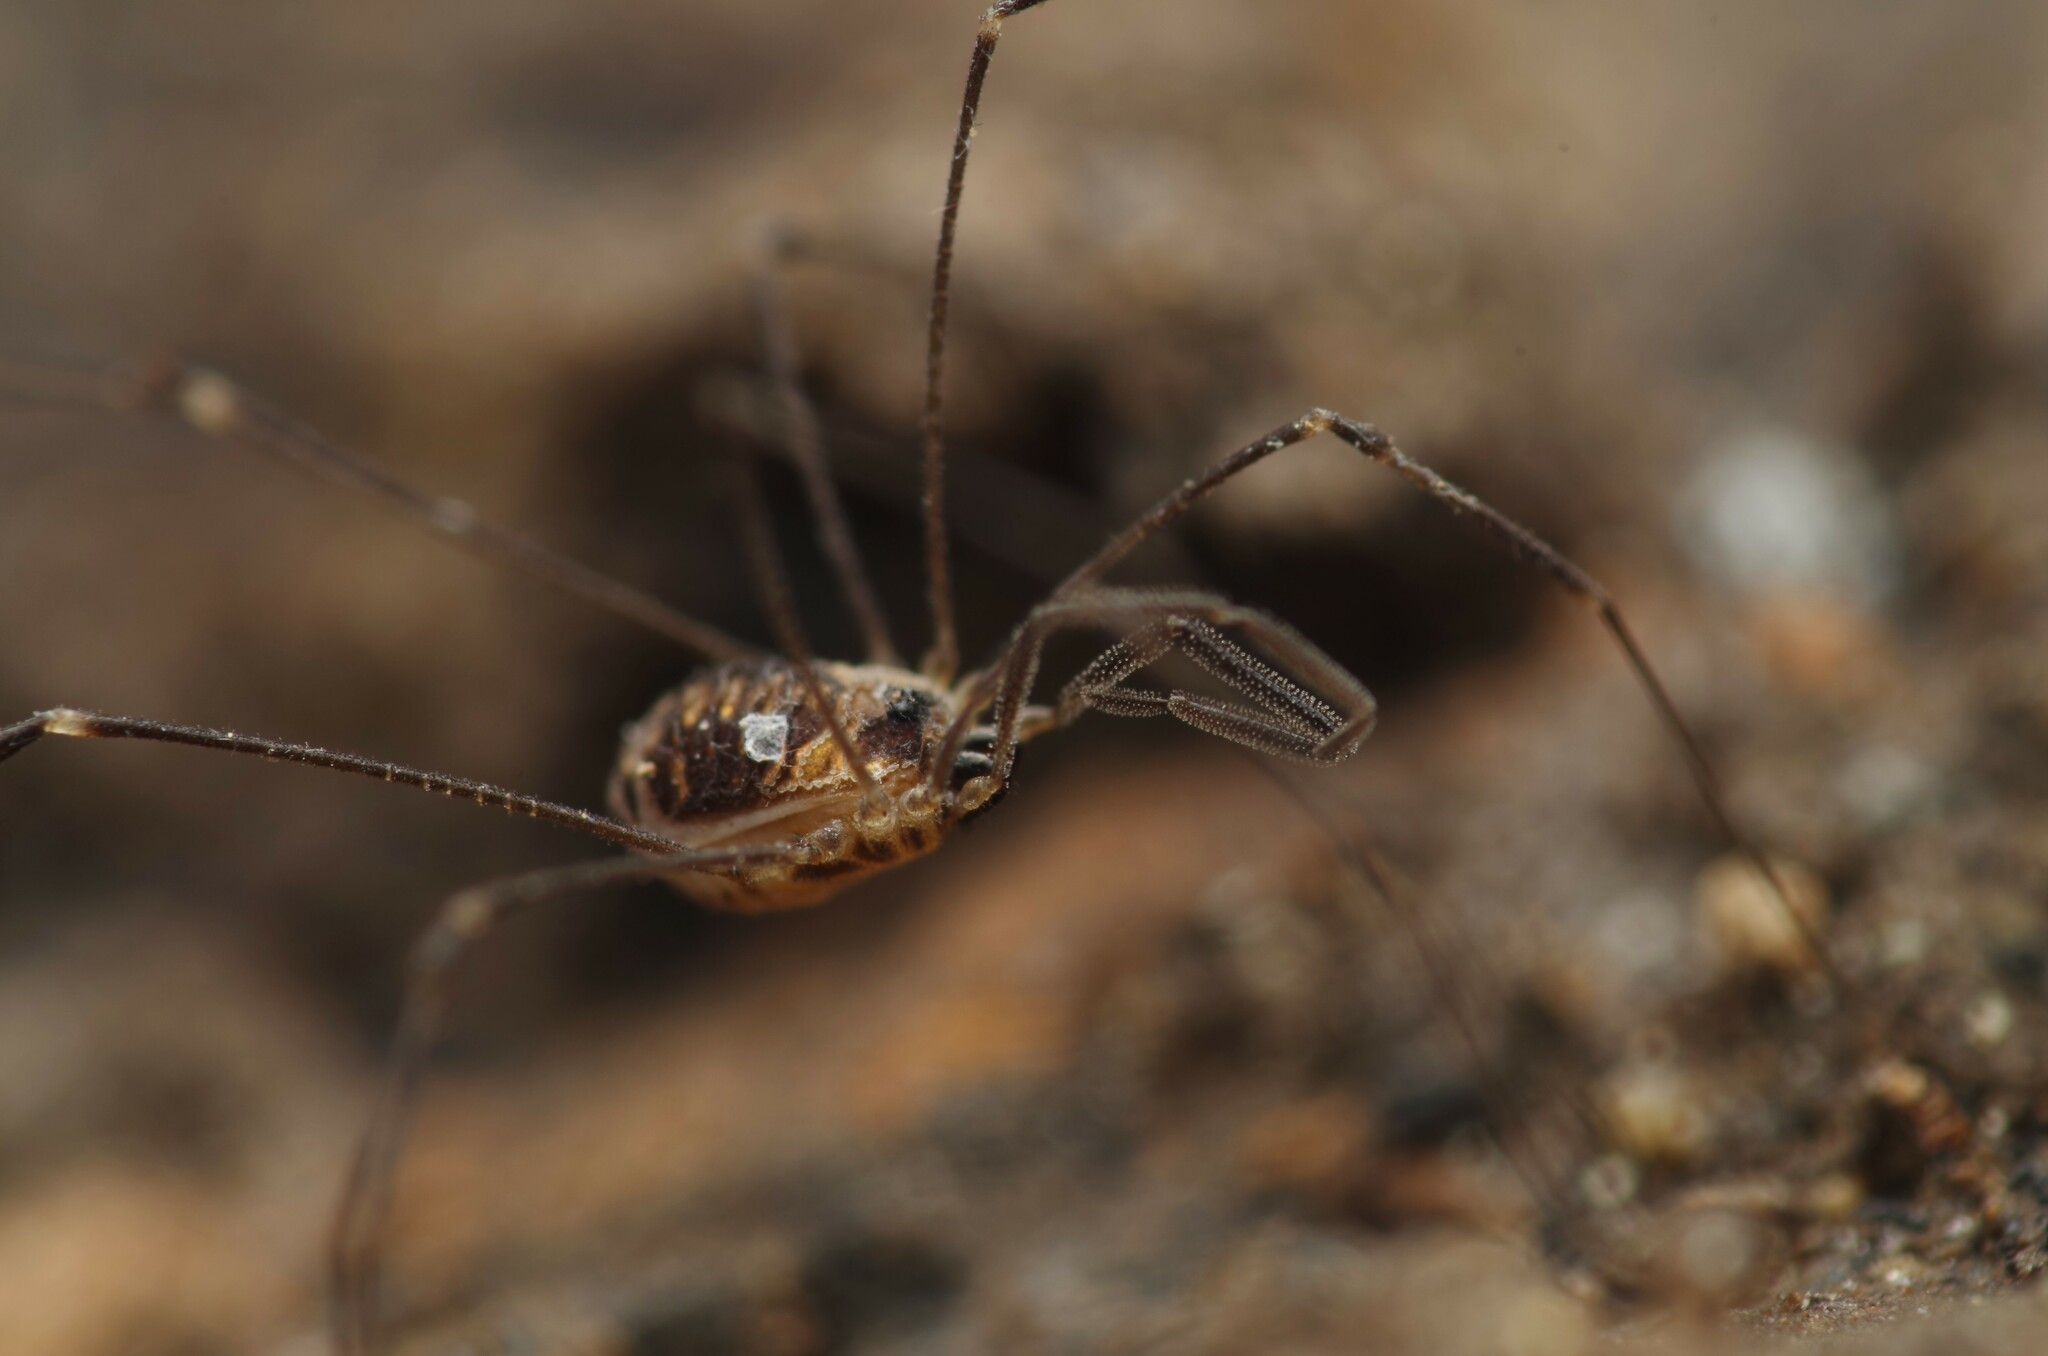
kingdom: Animalia
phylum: Arthropoda
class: Arachnida
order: Opiliones
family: Nemastomatidae
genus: Mitostoma
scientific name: Mitostoma chrysomelas
